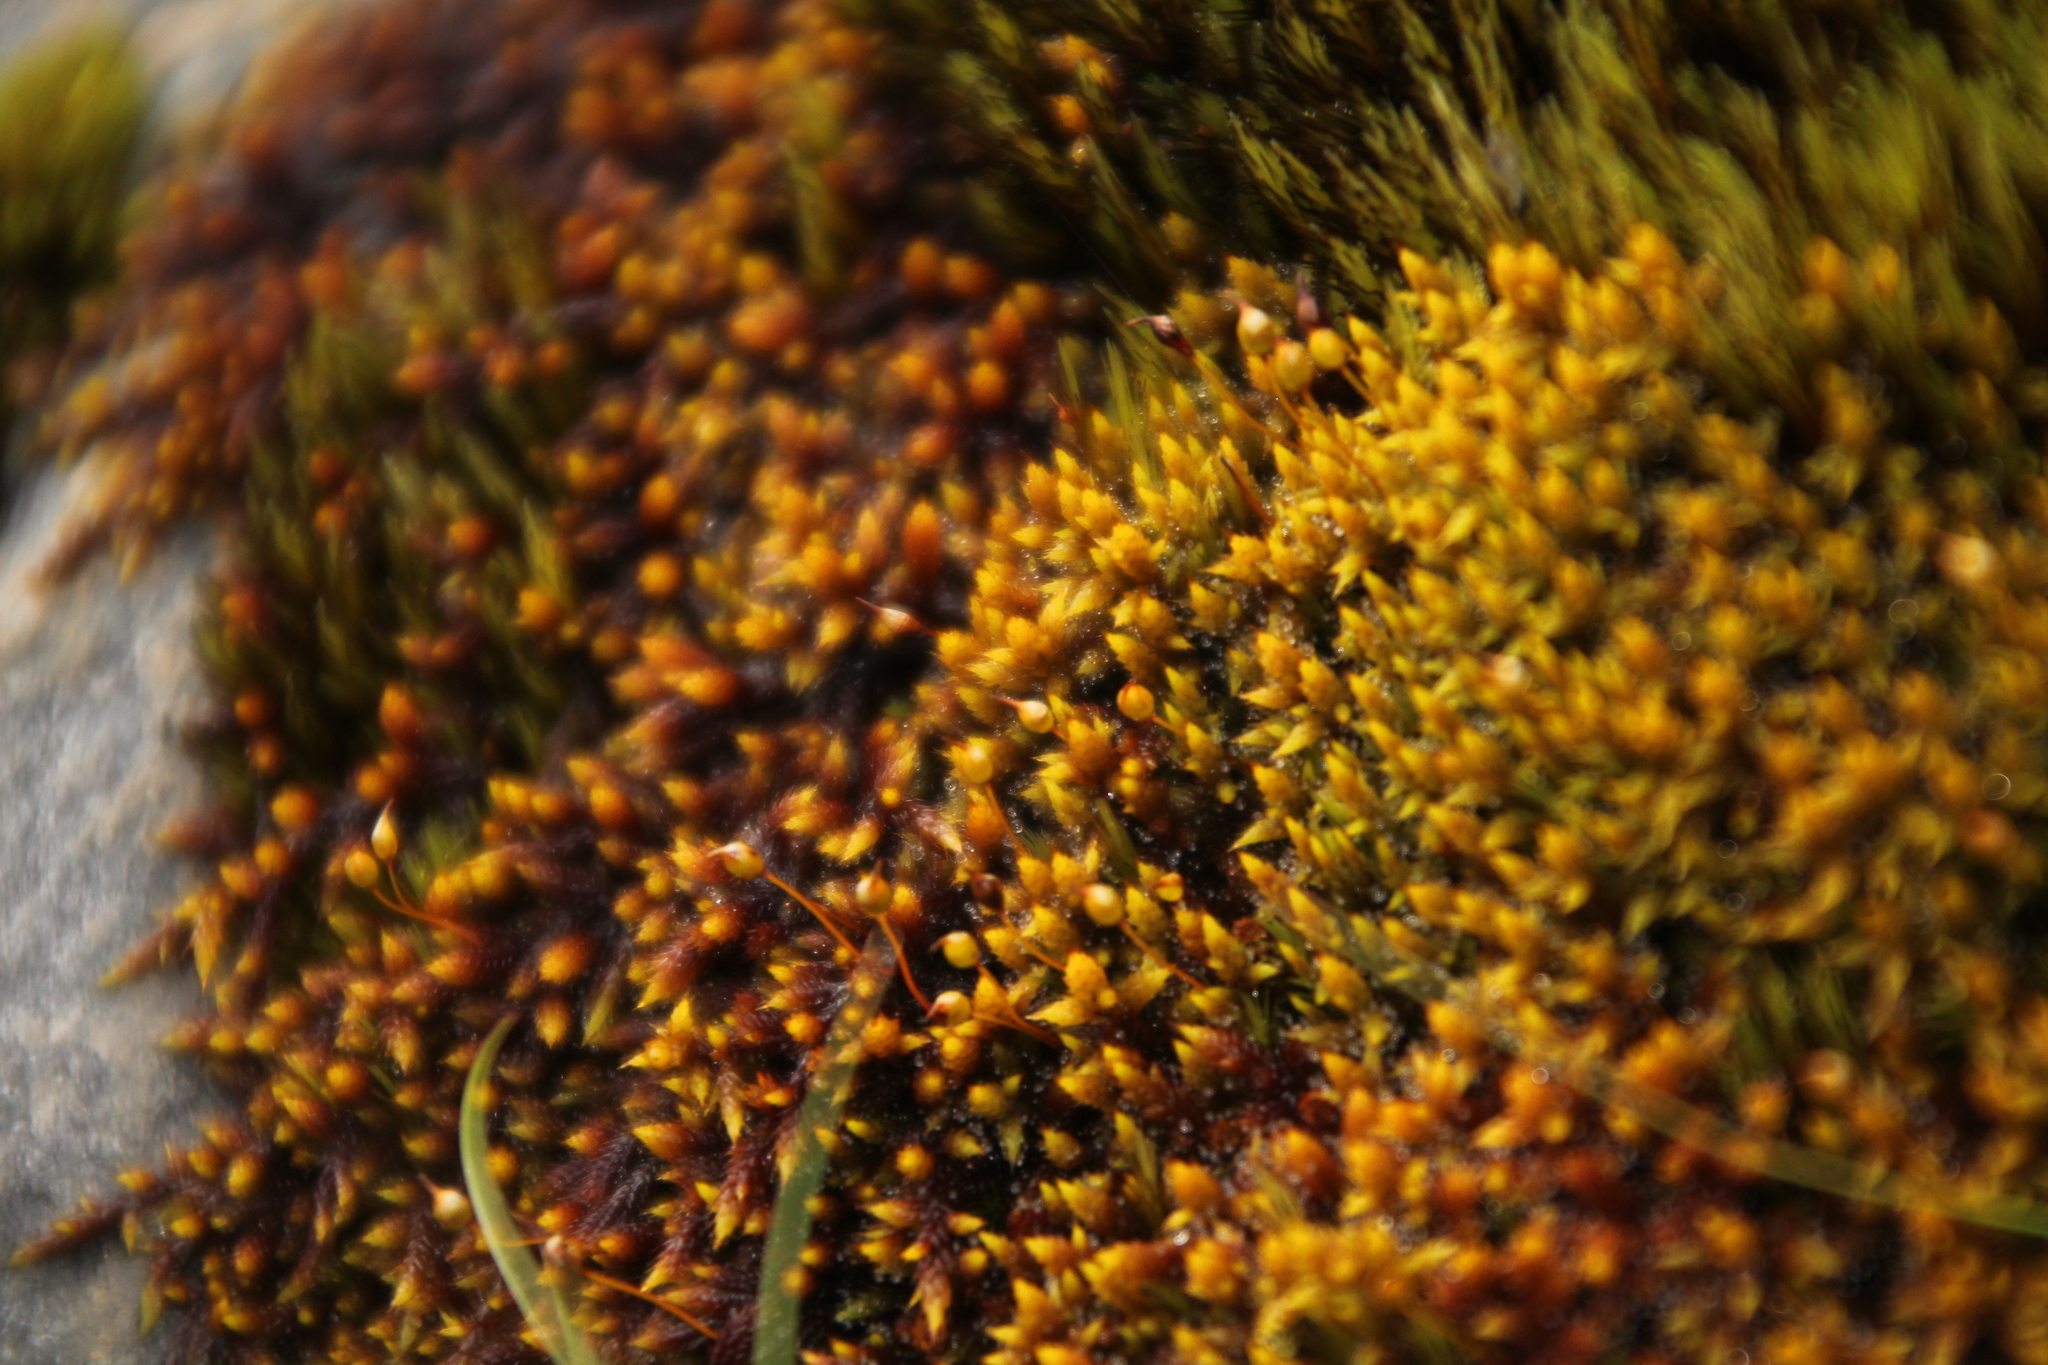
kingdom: Plantae
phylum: Bryophyta
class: Bryopsida
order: Hedwigiales
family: Hedwigiaceae
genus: Rhacocarpus
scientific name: Rhacocarpus purpurascens
